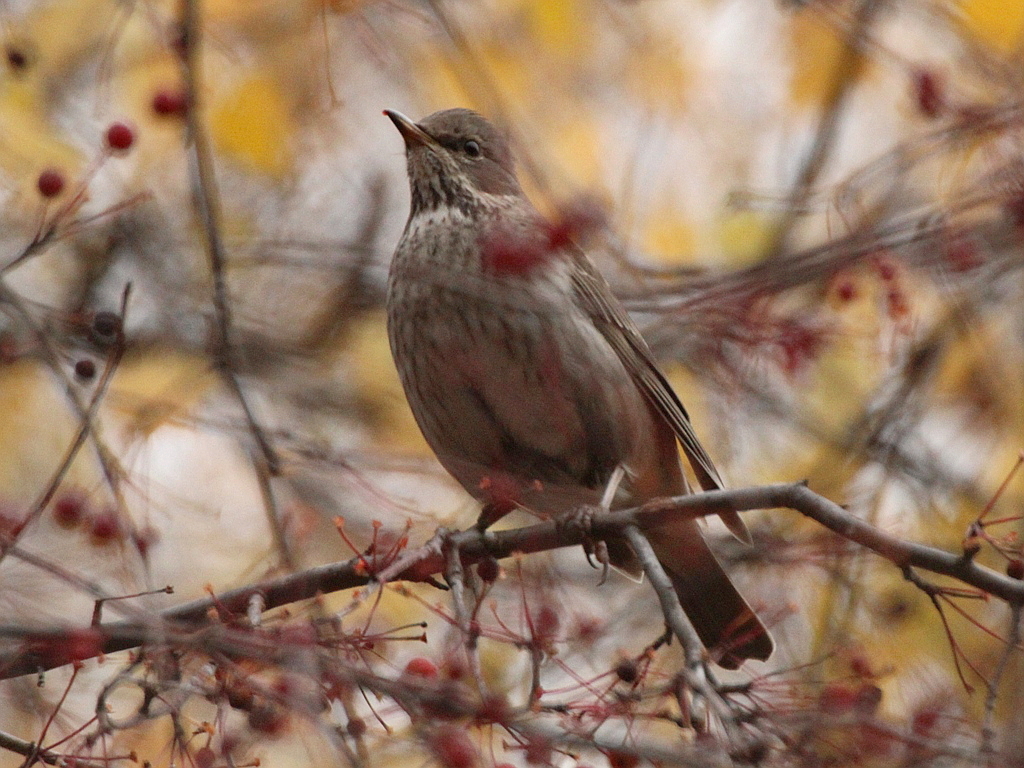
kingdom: Animalia
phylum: Chordata
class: Aves
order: Passeriformes
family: Turdidae
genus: Turdus
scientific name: Turdus atrogularis
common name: Black-throated thrush
